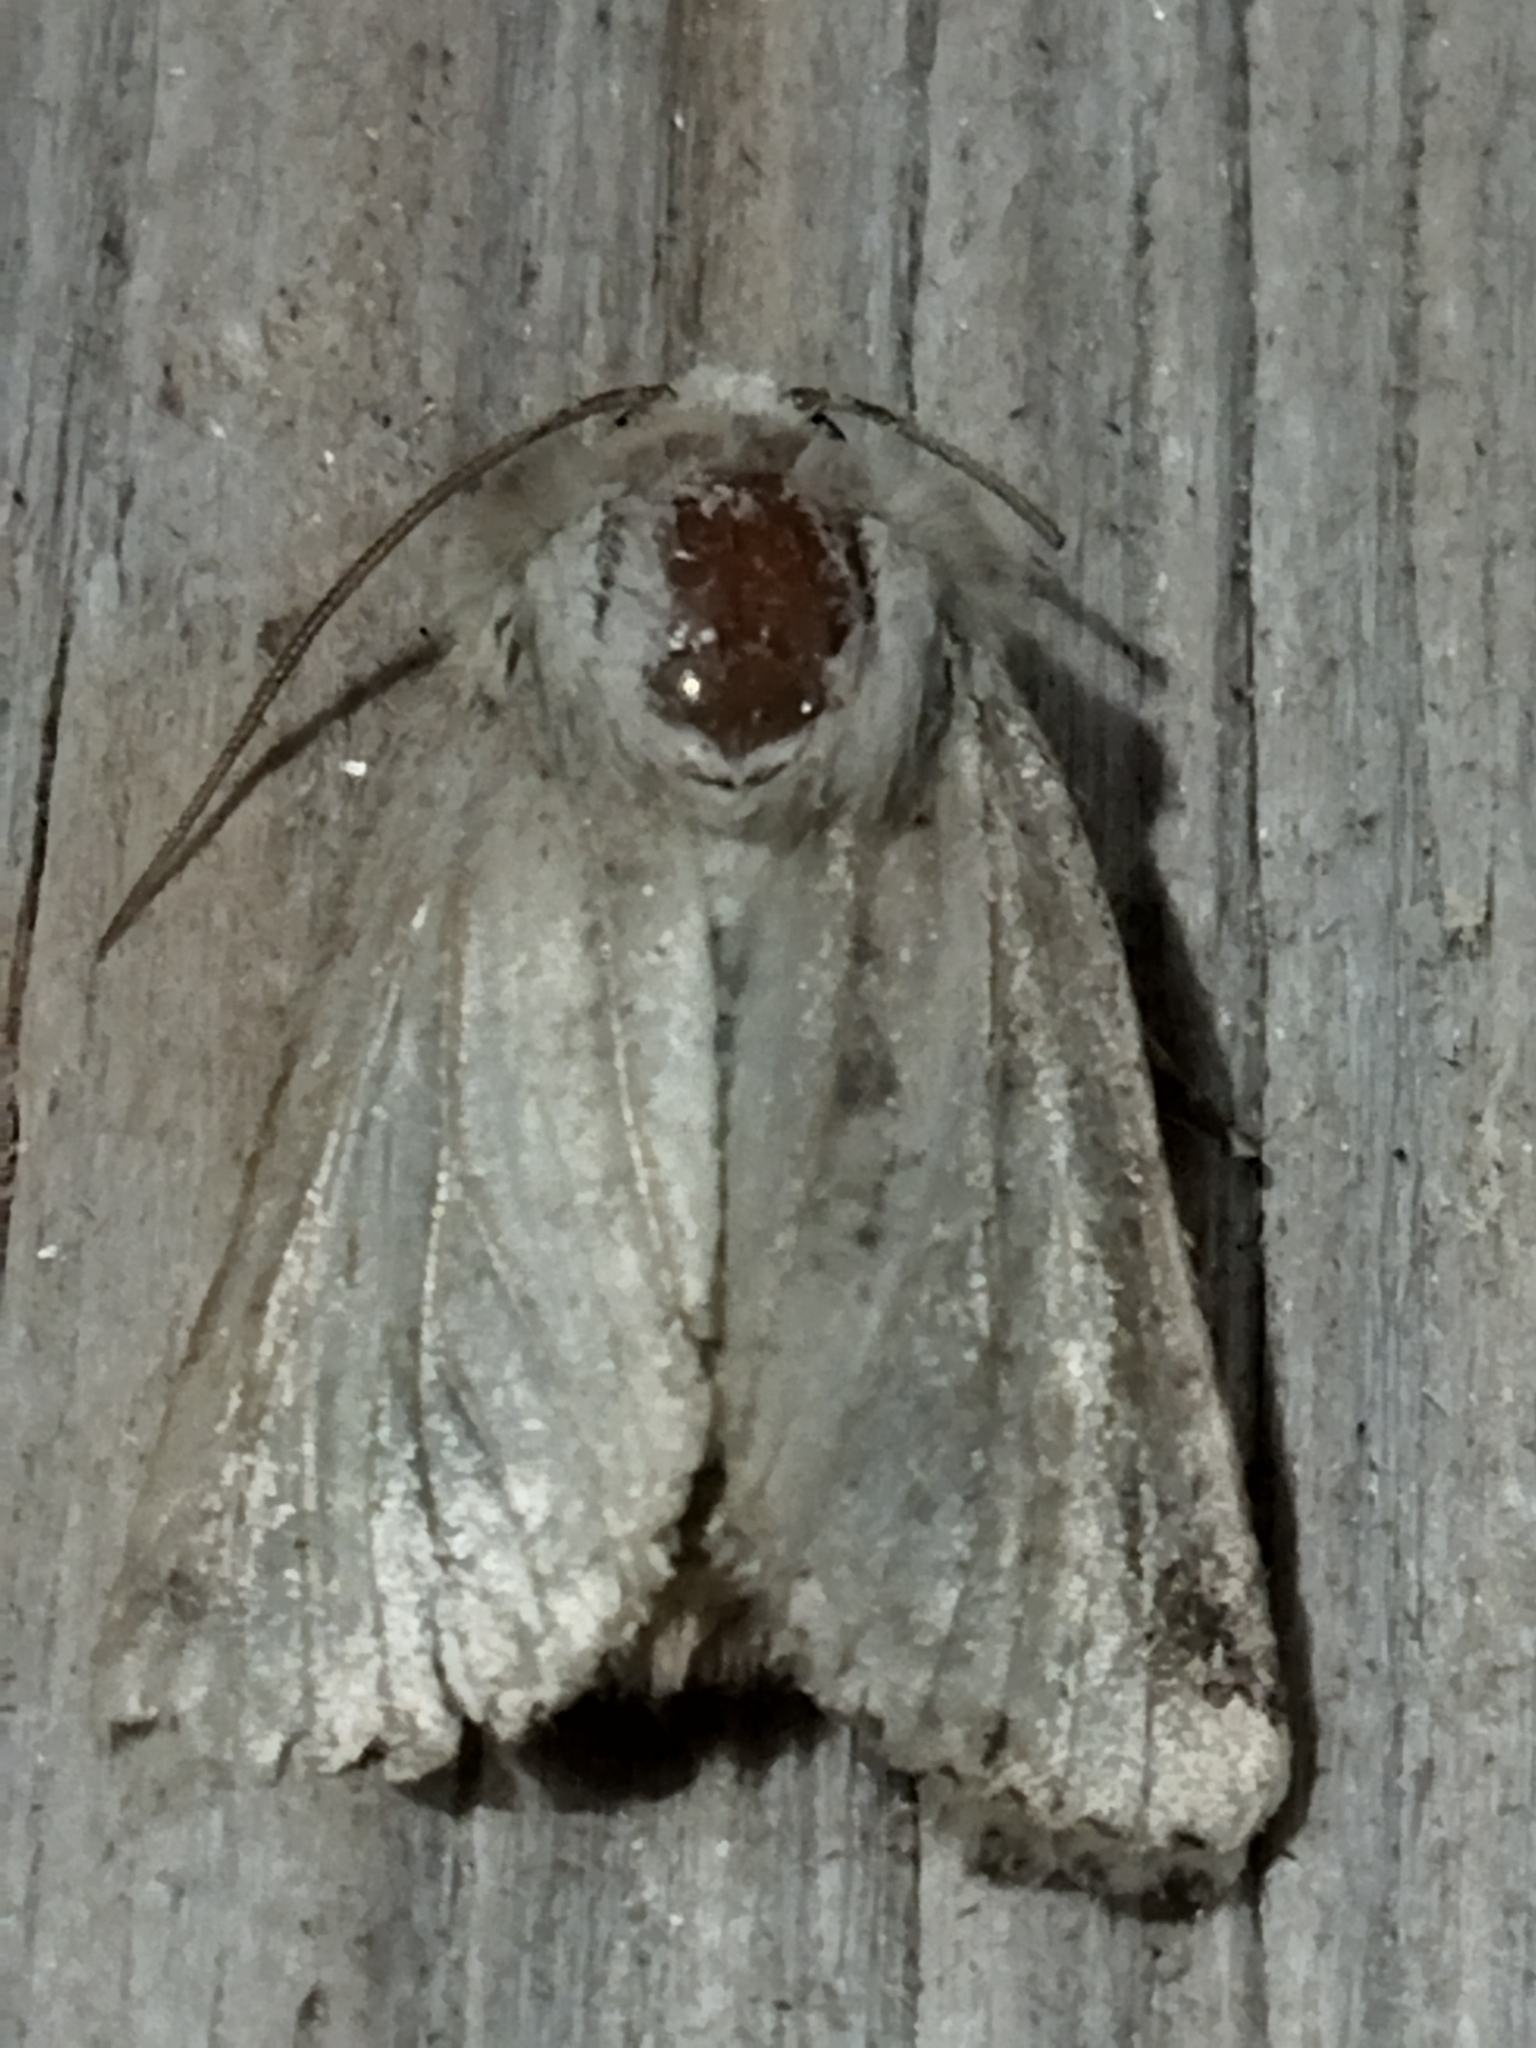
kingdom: Animalia
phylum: Arthropoda
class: Insecta
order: Lepidoptera
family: Noctuidae
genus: Luperina
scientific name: Luperina dumerilii
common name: Dumeril's rustic
